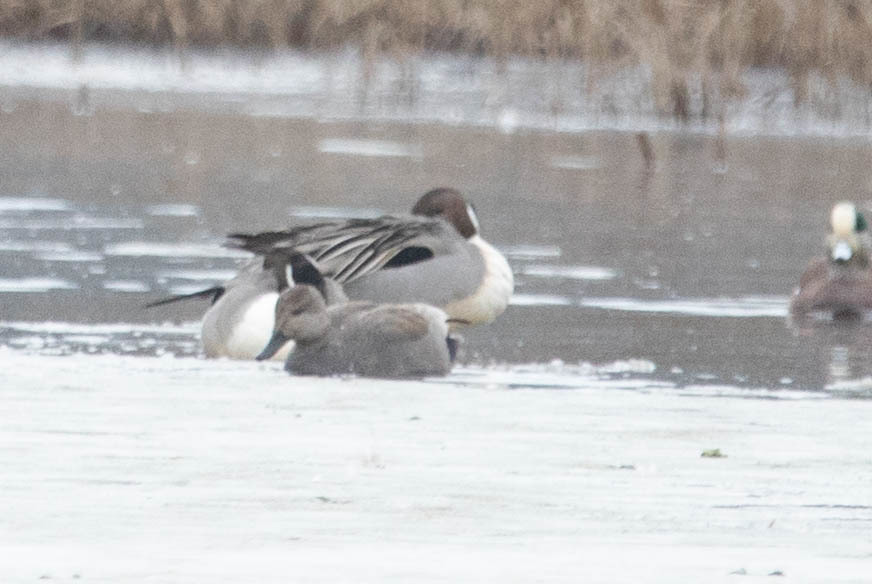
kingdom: Animalia
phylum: Chordata
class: Aves
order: Anseriformes
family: Anatidae
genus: Mareca
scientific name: Mareca strepera
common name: Gadwall
